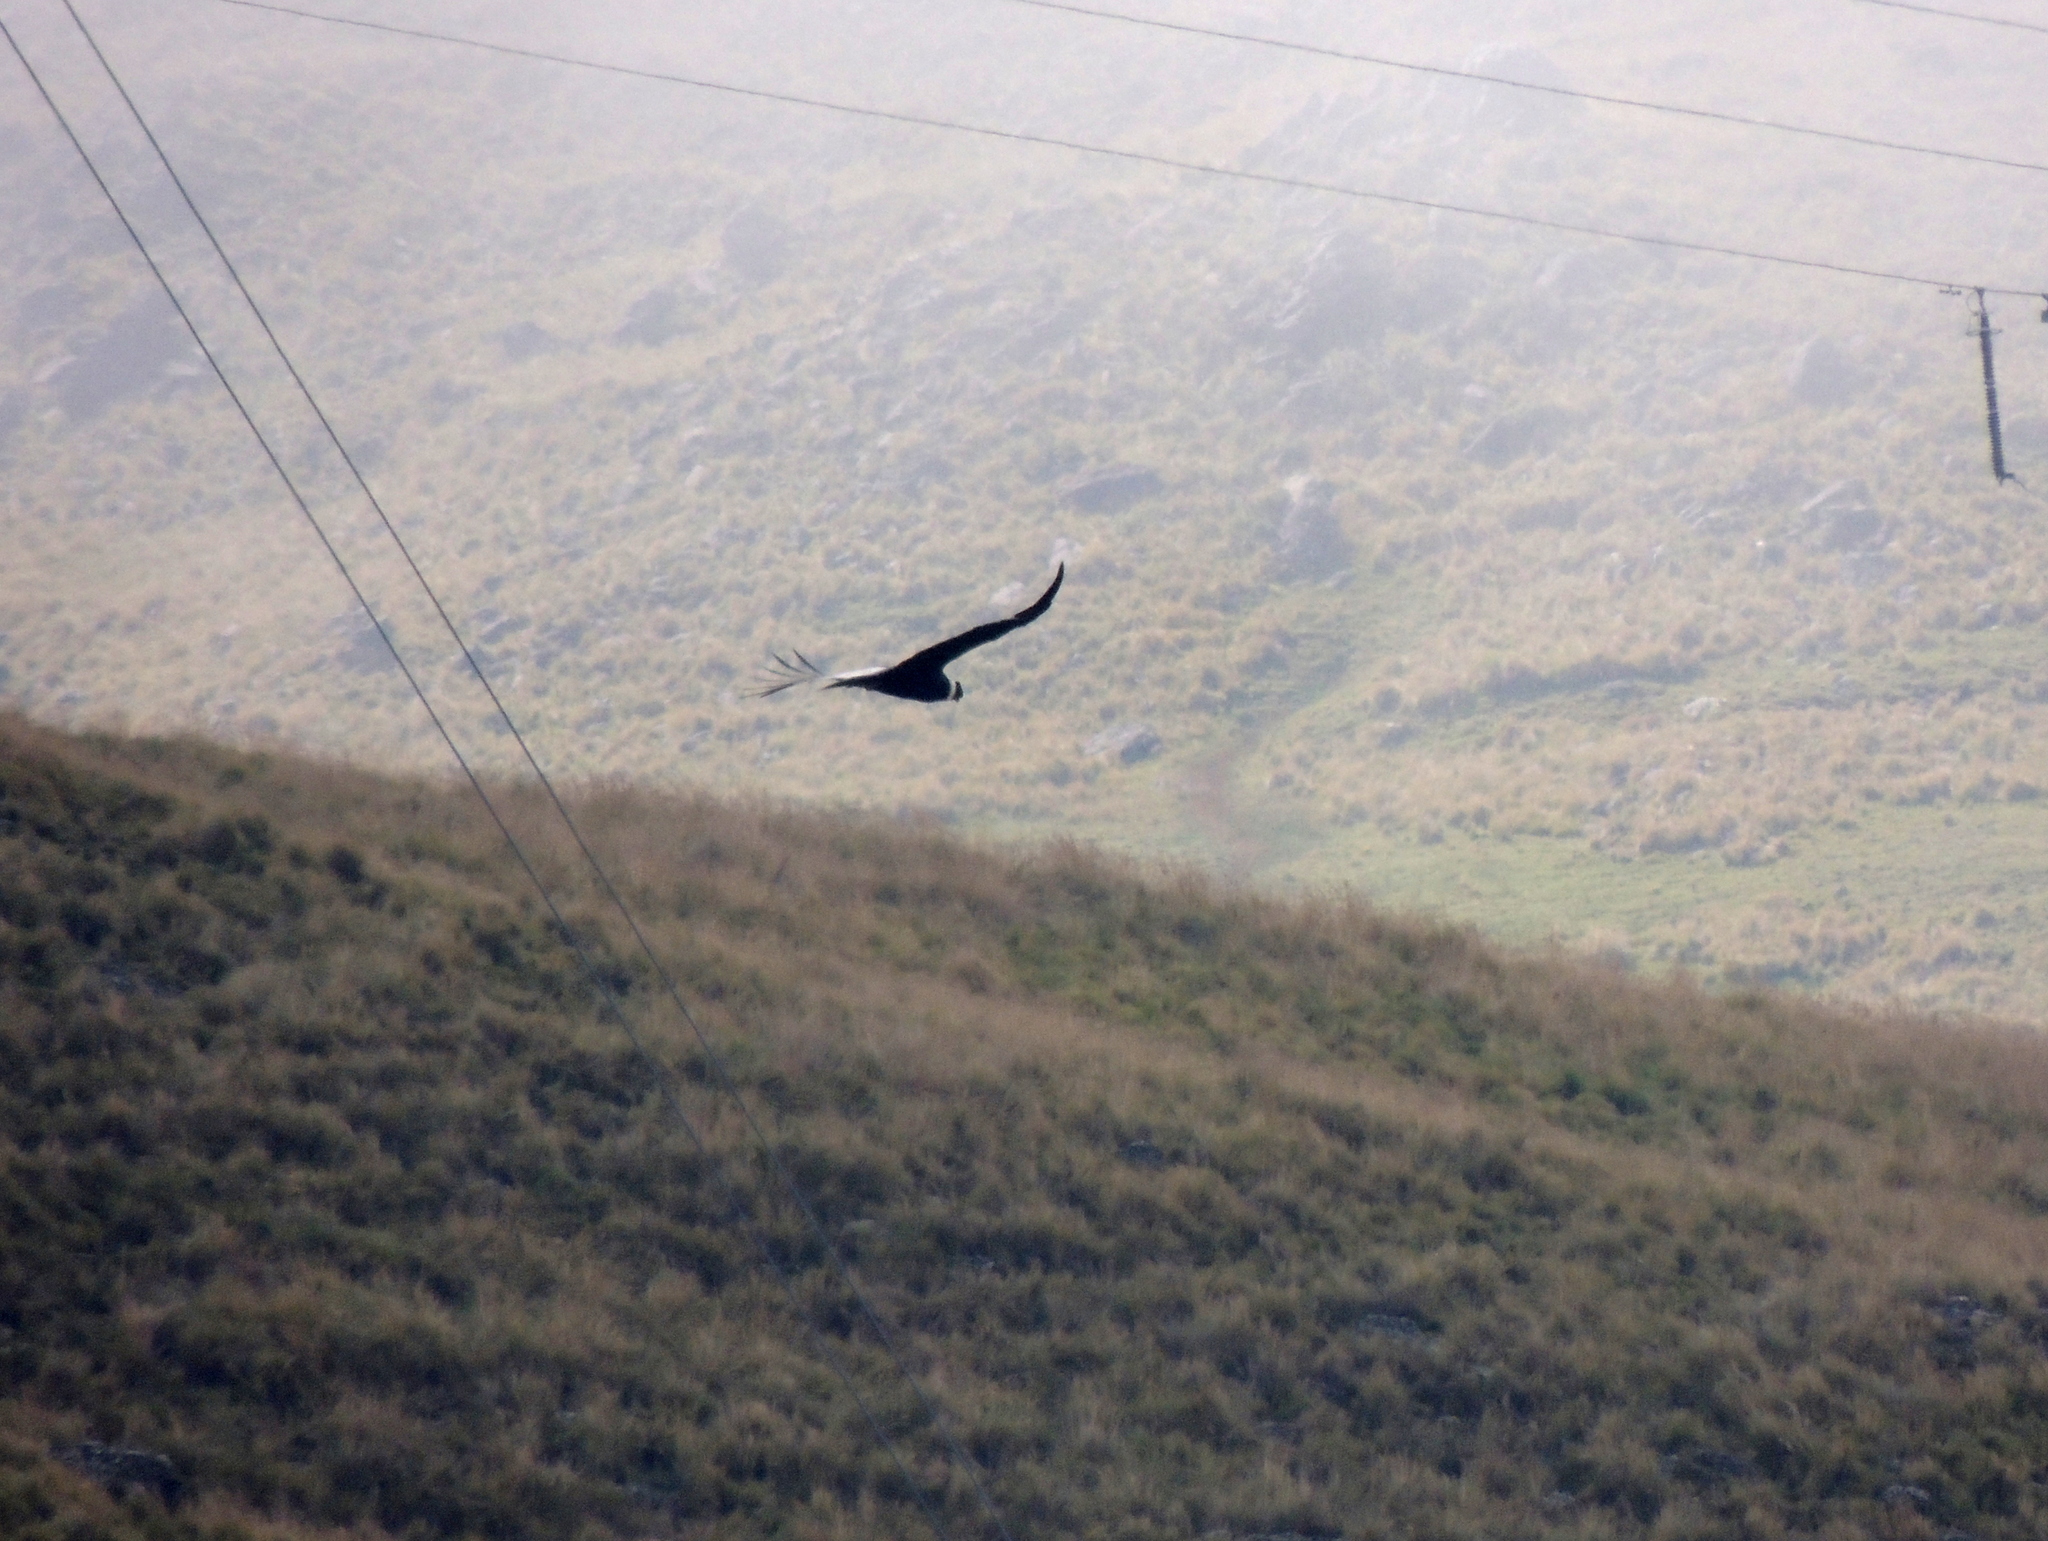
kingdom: Animalia
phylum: Chordata
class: Aves
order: Accipitriformes
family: Cathartidae
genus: Vultur
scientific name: Vultur gryphus
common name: Andean condor
